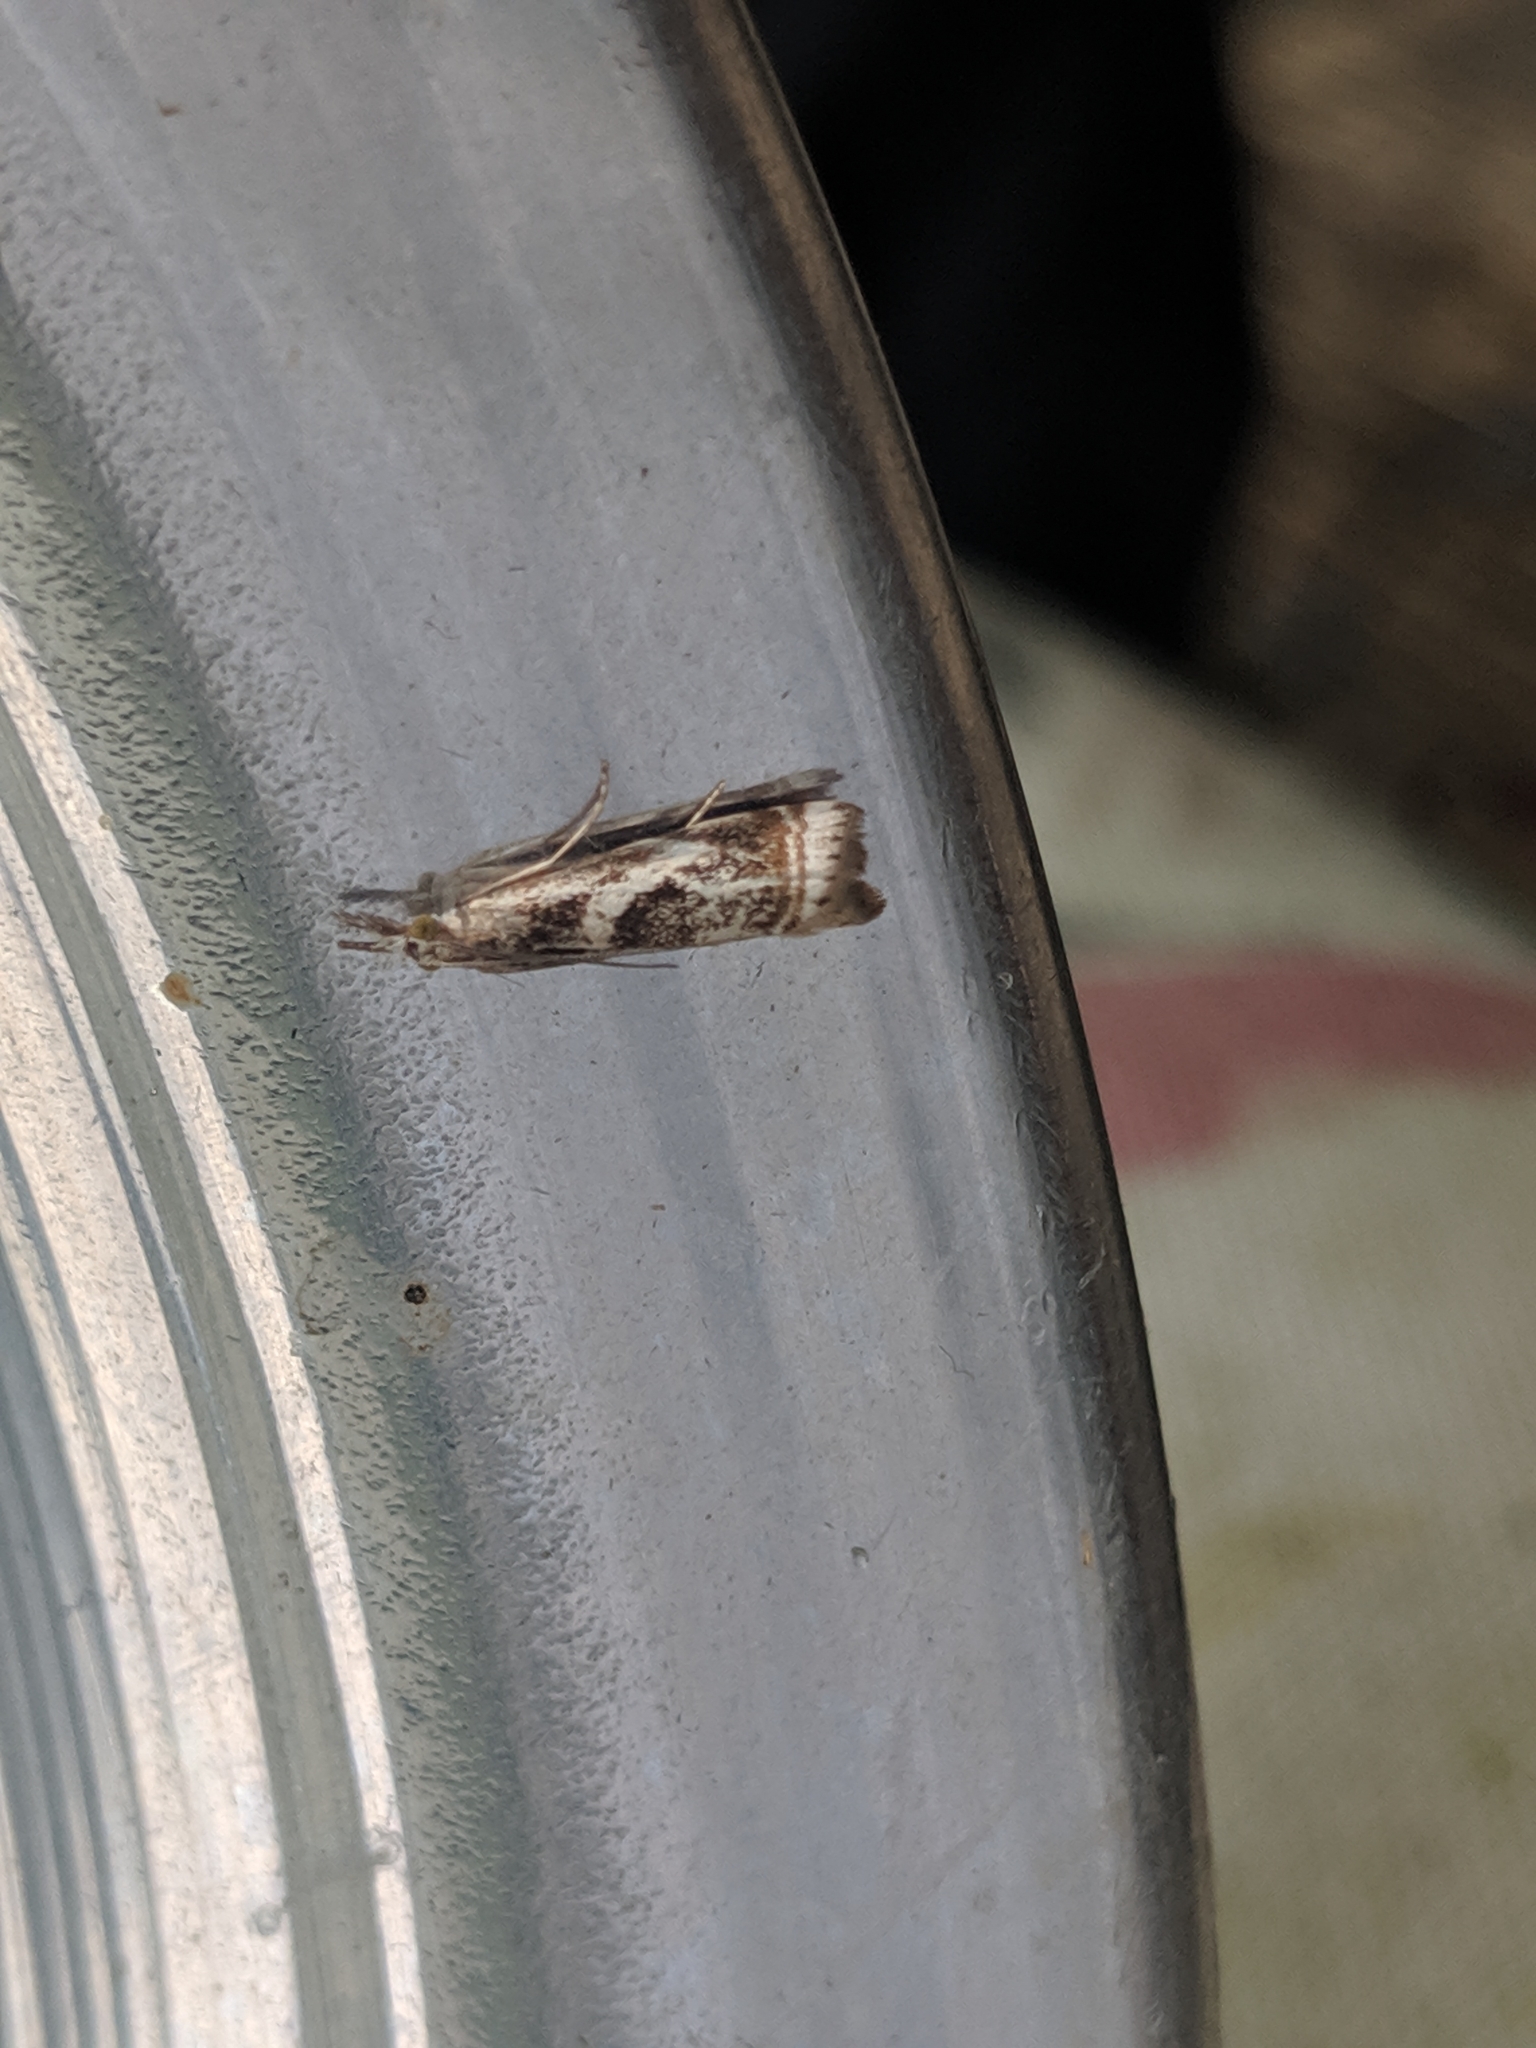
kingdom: Animalia
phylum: Arthropoda
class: Insecta
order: Lepidoptera
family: Crambidae
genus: Microcrambus
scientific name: Microcrambus elegans
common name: Elegant grass-veneer
